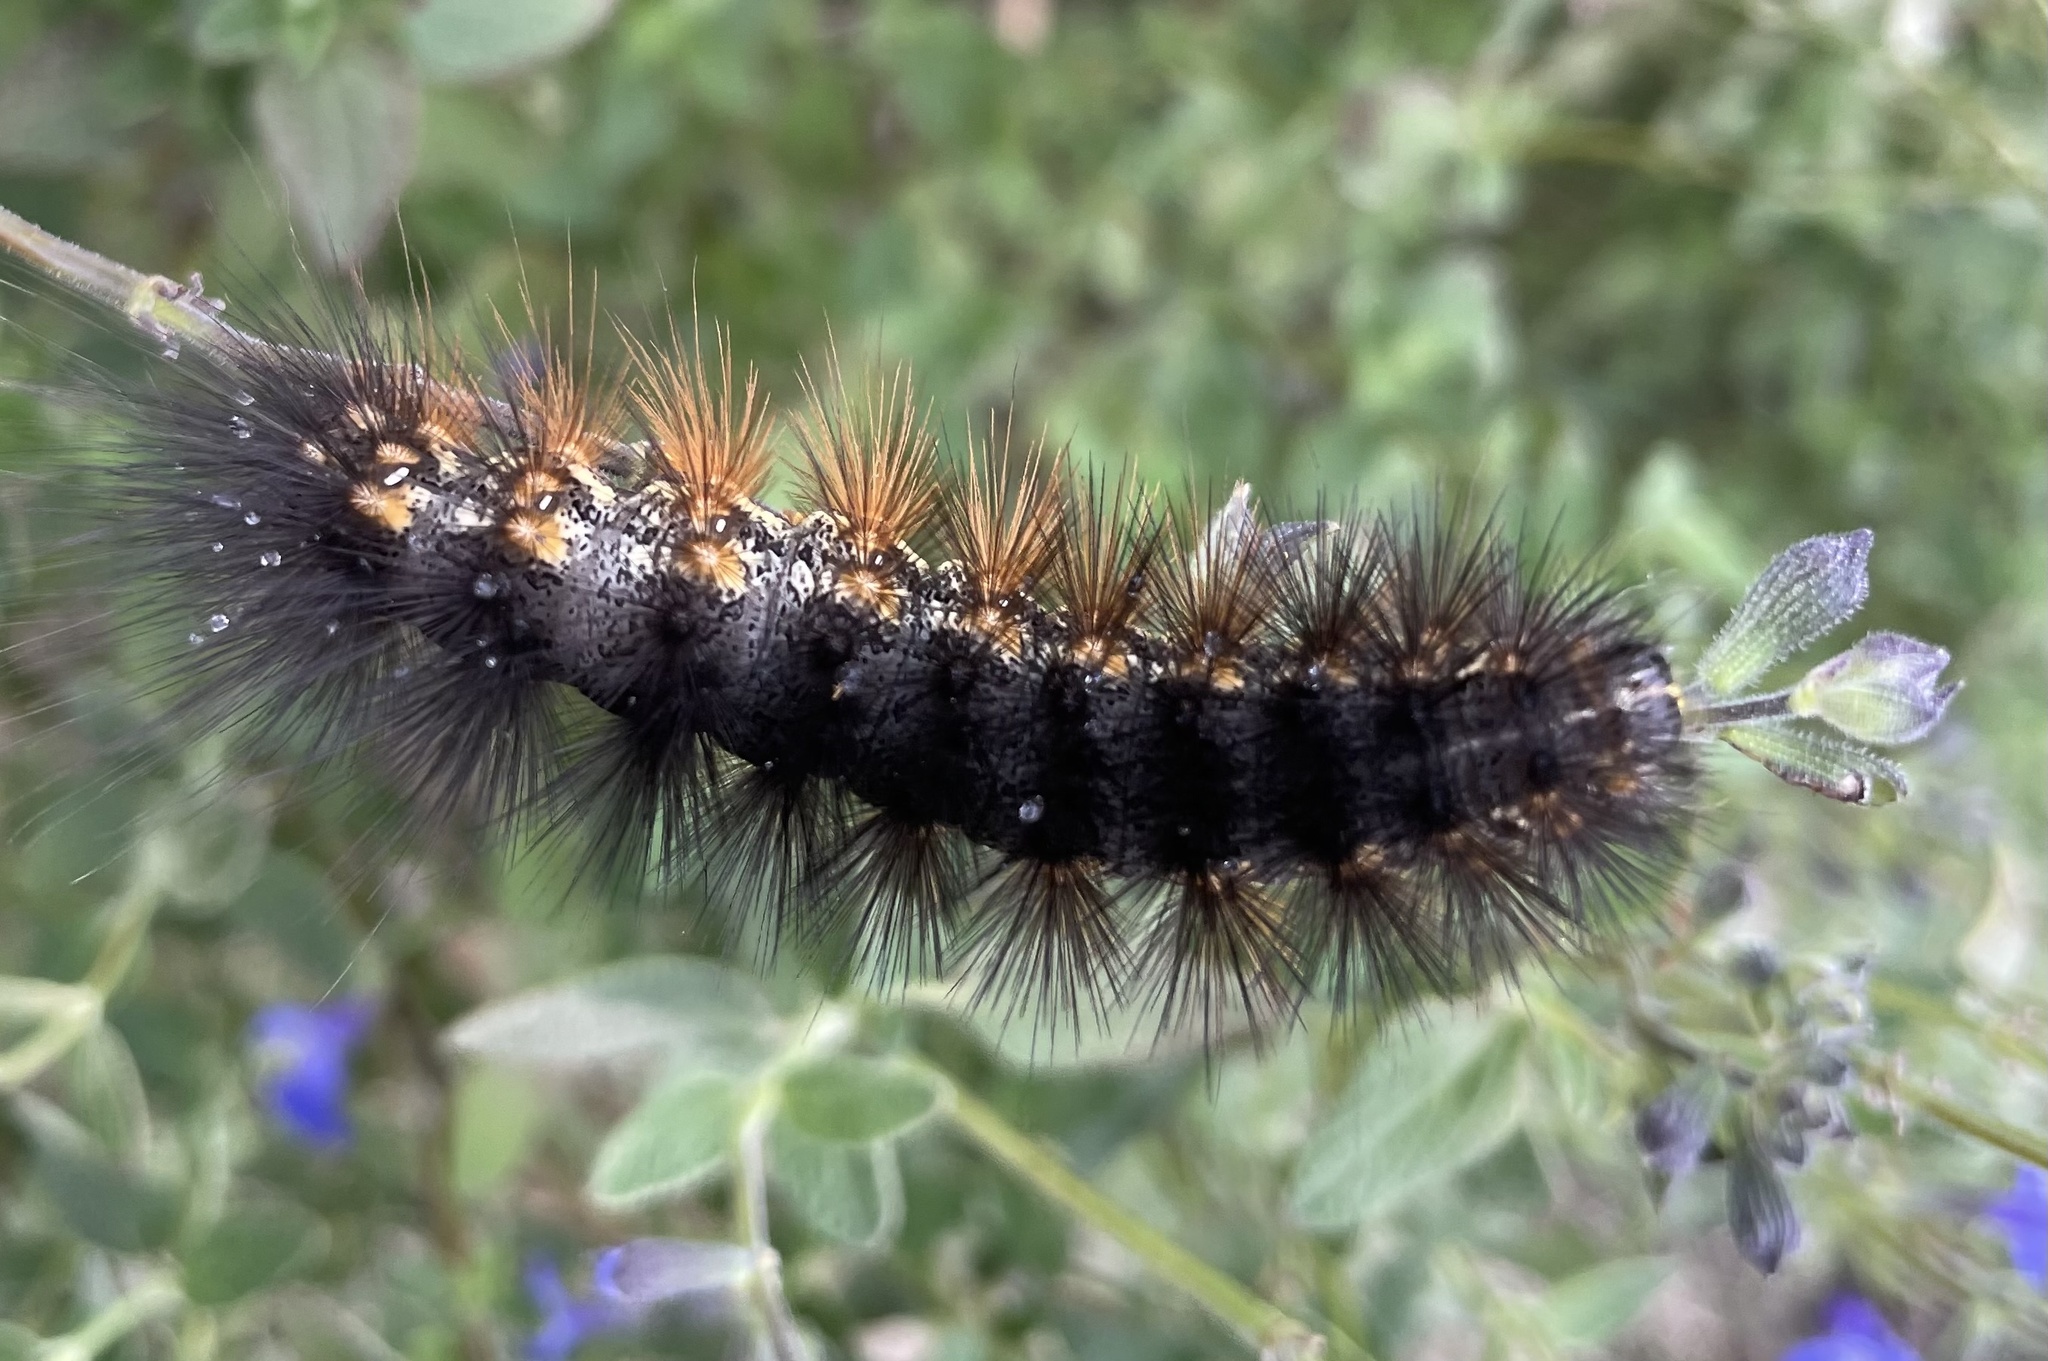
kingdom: Animalia
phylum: Arthropoda
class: Insecta
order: Lepidoptera
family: Erebidae
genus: Estigmene
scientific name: Estigmene acrea
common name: Salt marsh moth
